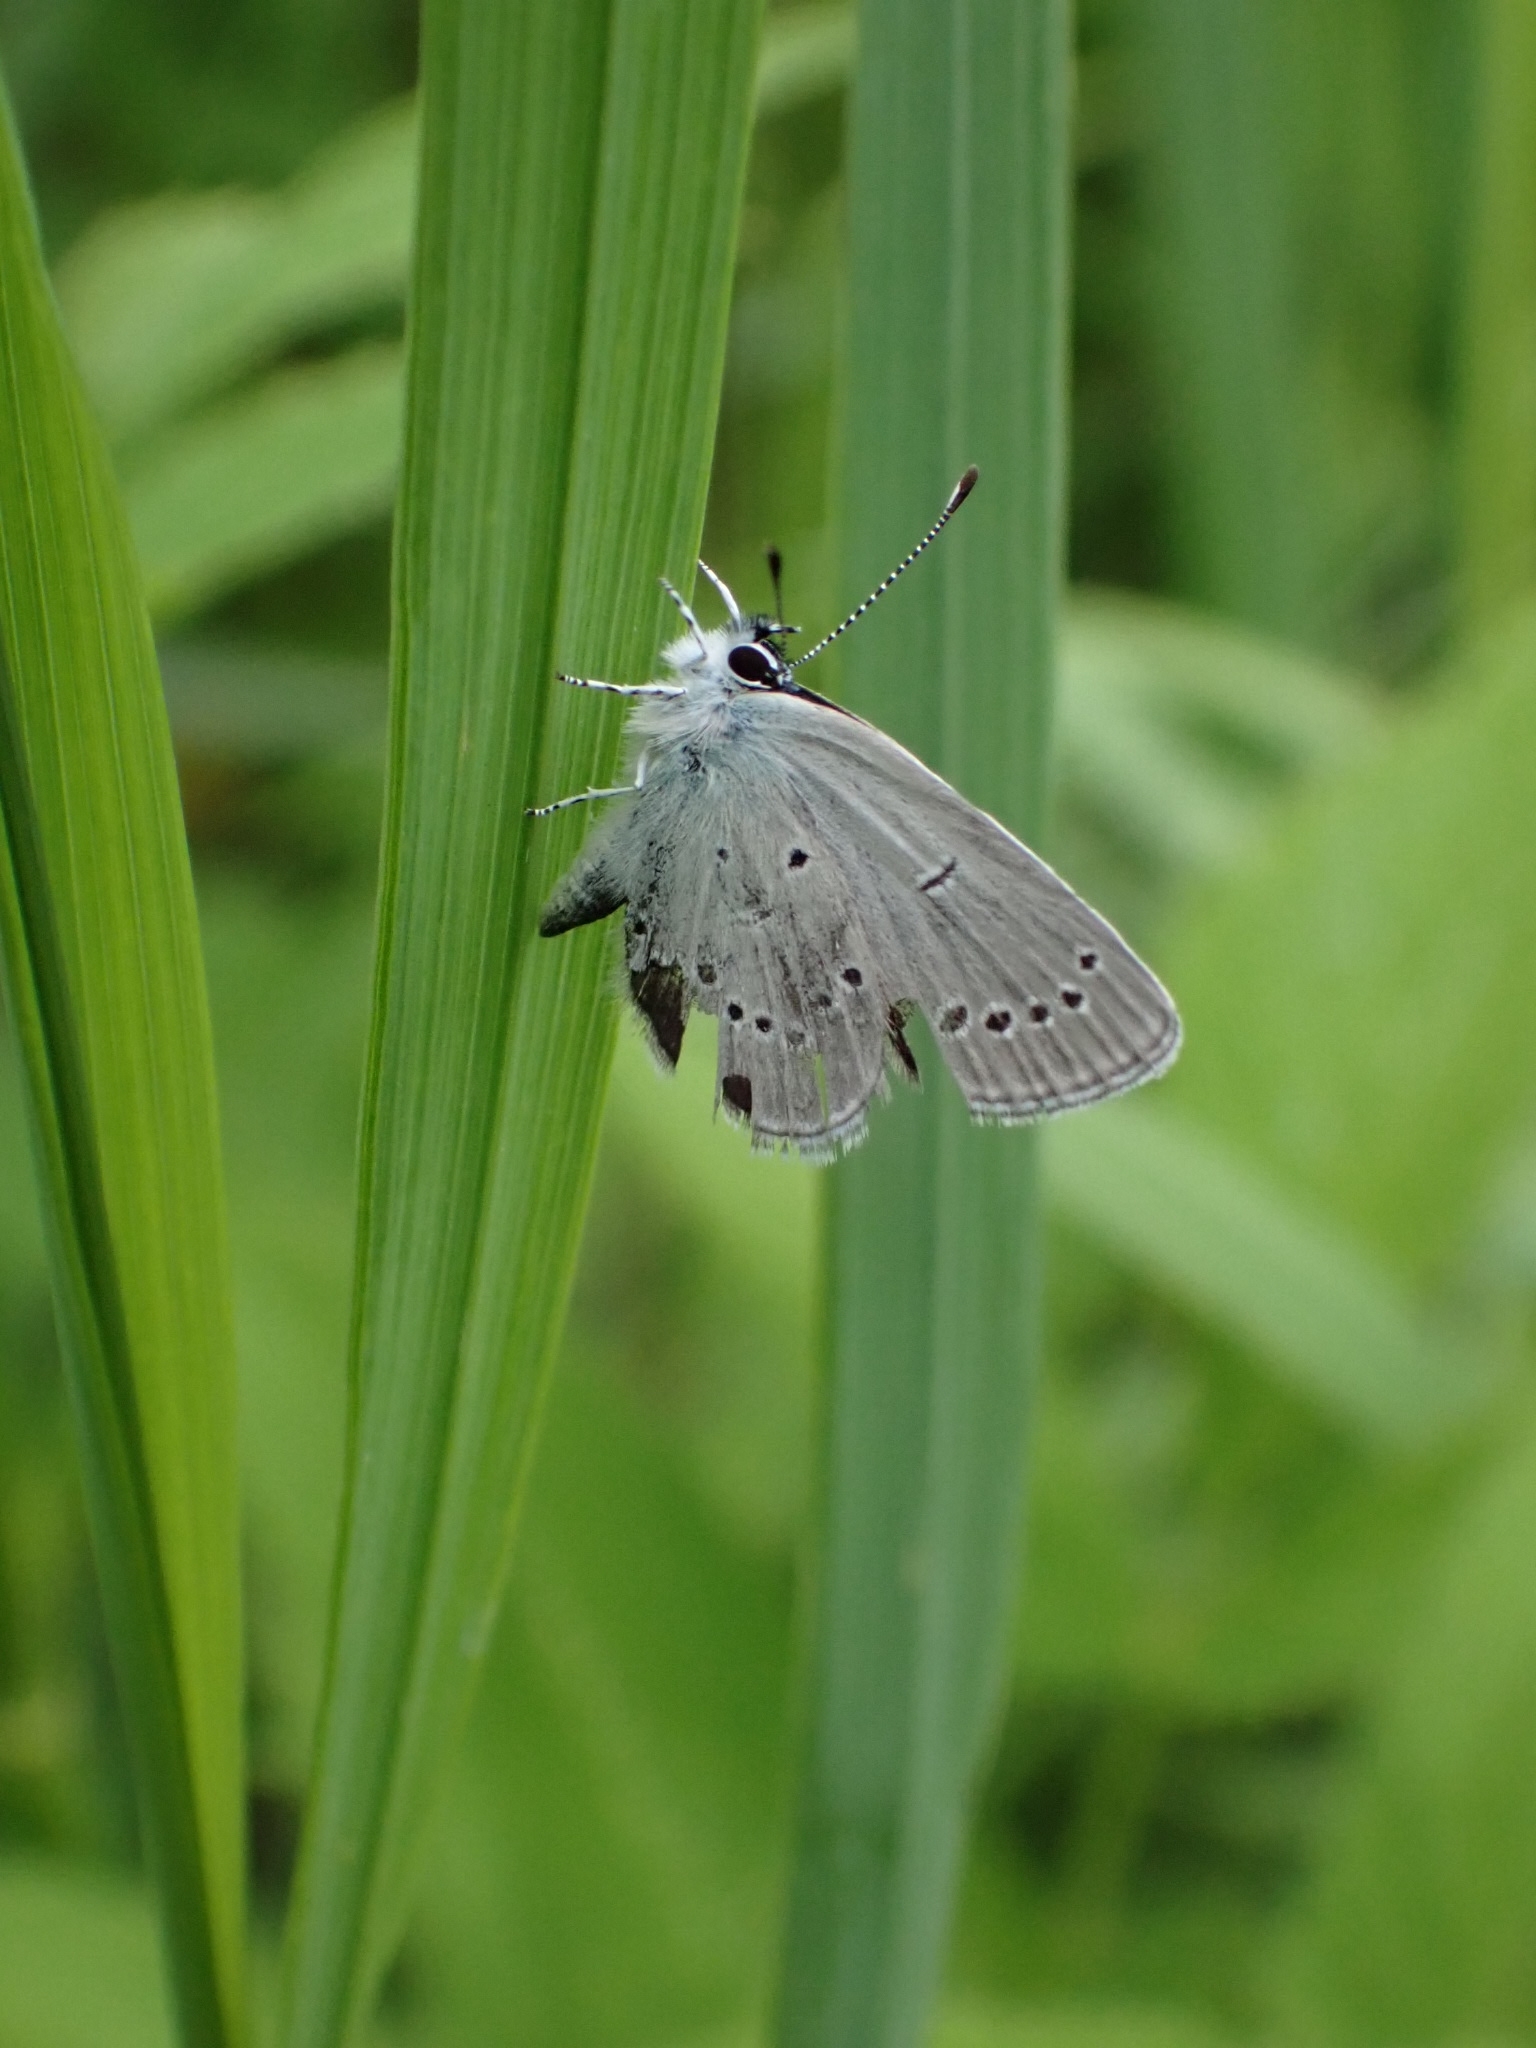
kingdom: Animalia
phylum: Arthropoda
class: Insecta
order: Lepidoptera
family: Lycaenidae
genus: Cupido
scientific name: Cupido minimus
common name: Small blue
